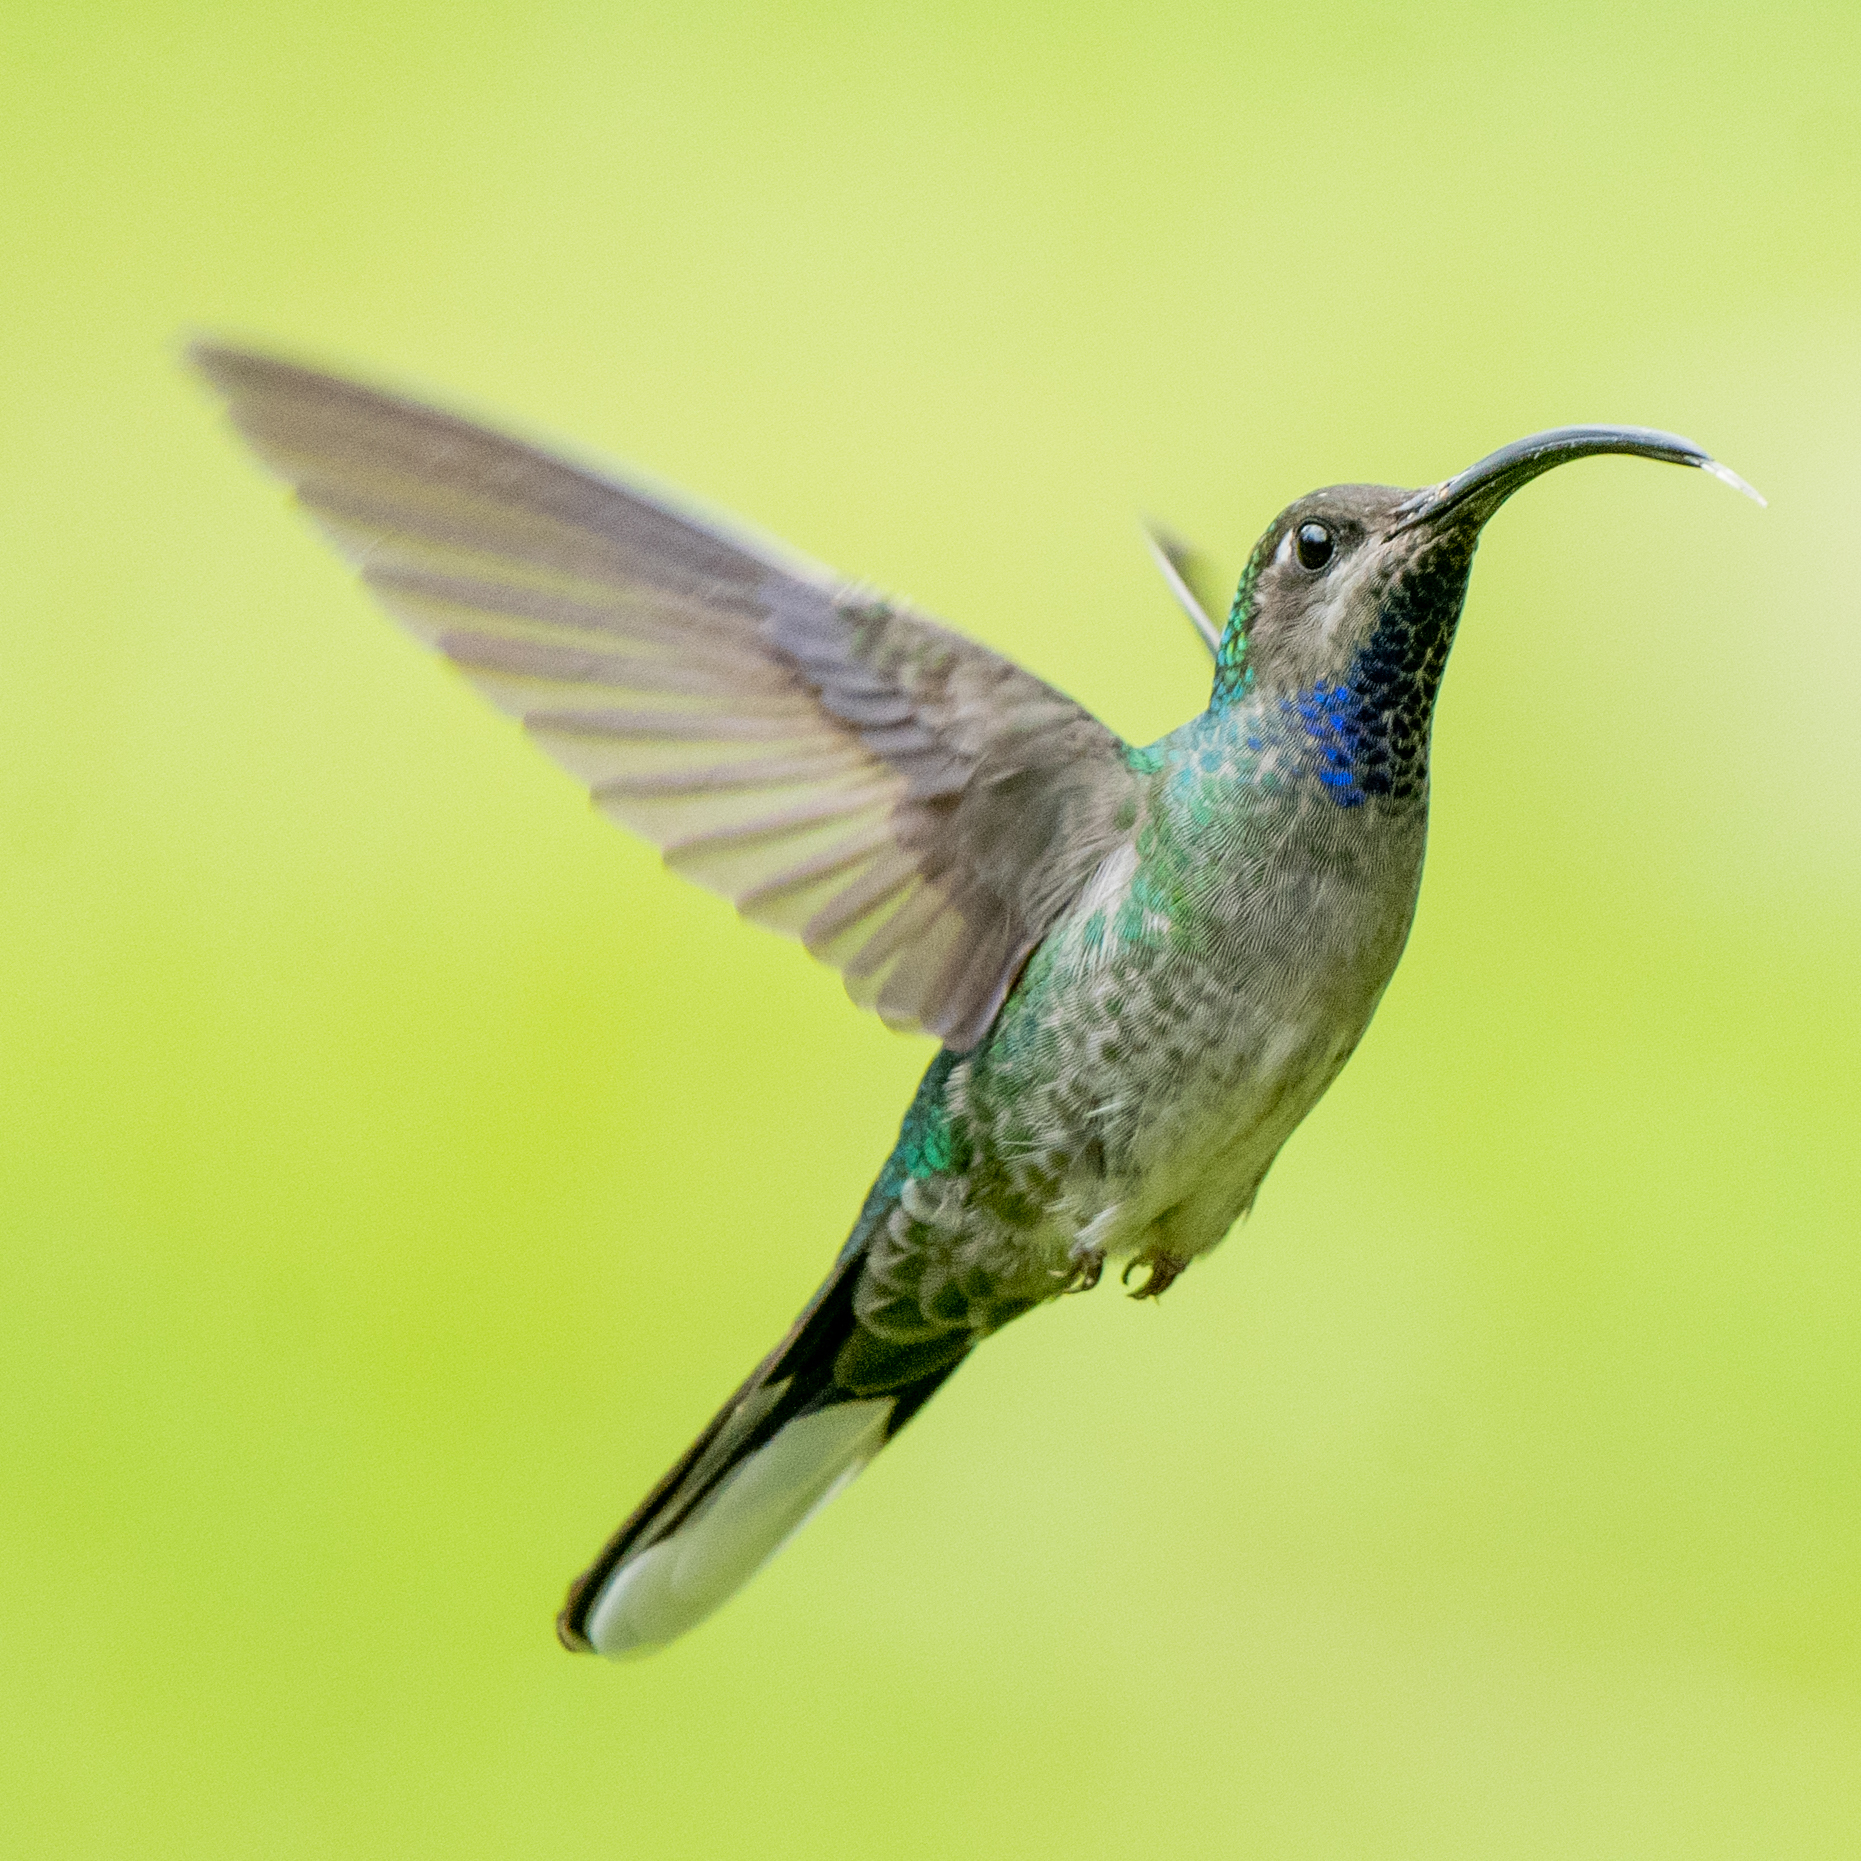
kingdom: Animalia
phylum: Chordata
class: Aves
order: Apodiformes
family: Trochilidae
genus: Campylopterus
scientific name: Campylopterus hemileucurus
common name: Violet sabrewing
